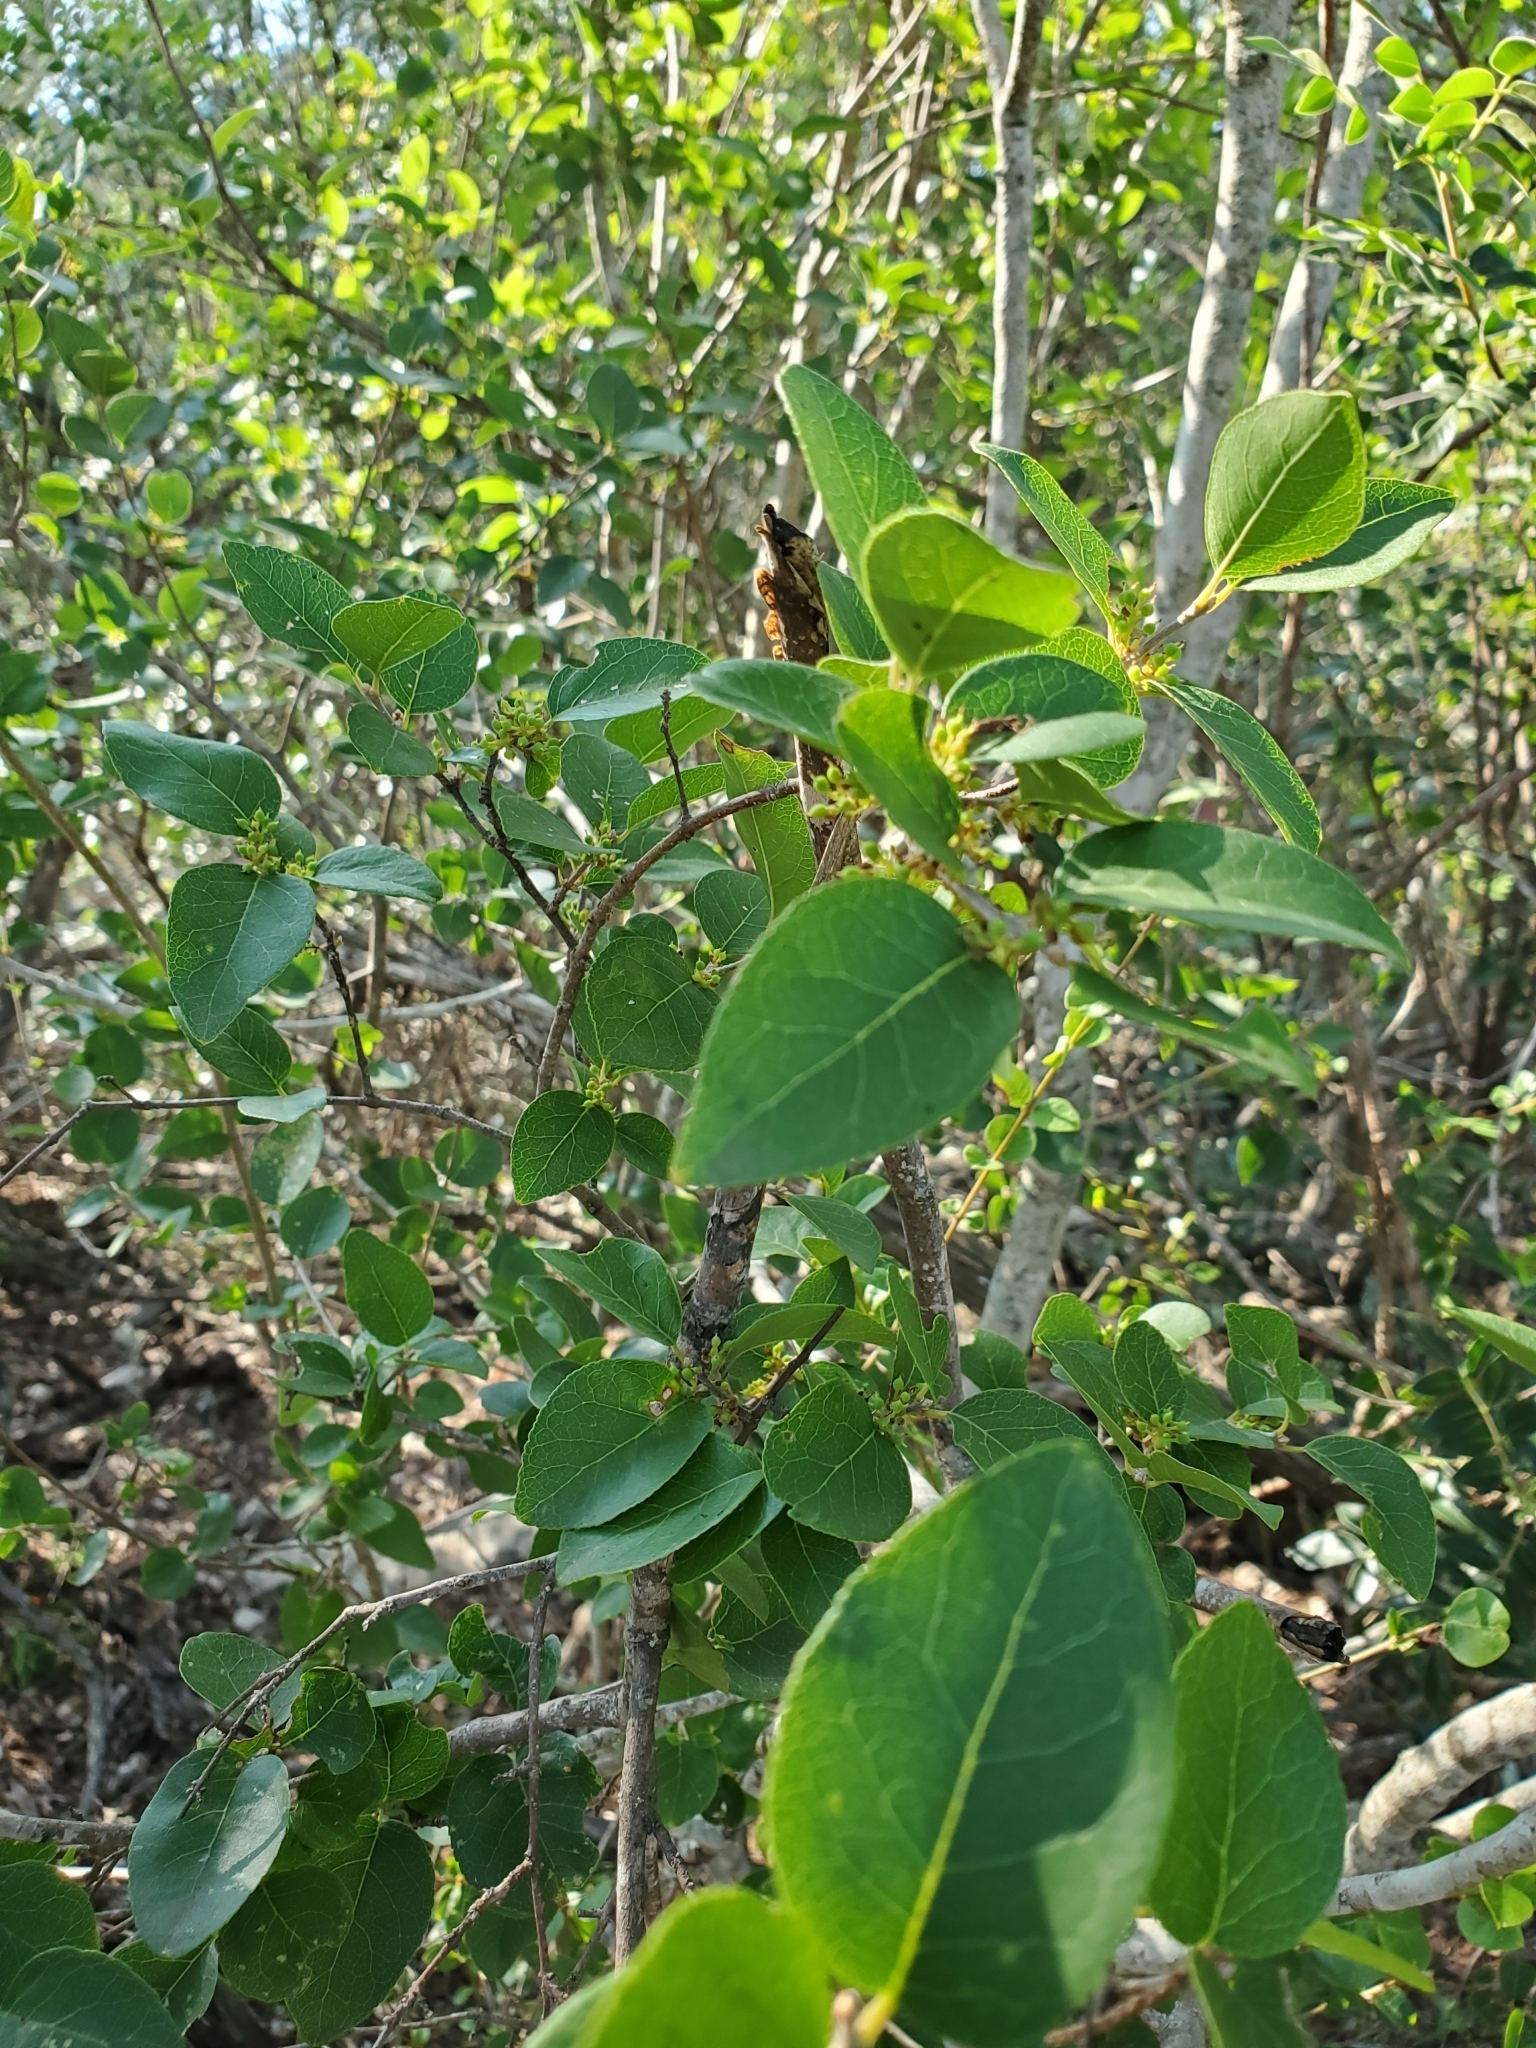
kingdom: Plantae
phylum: Tracheophyta
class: Magnoliopsida
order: Lamiales
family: Oleaceae
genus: Forestiera
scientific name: Forestiera reticulata
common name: Netleaf swamp-privet
